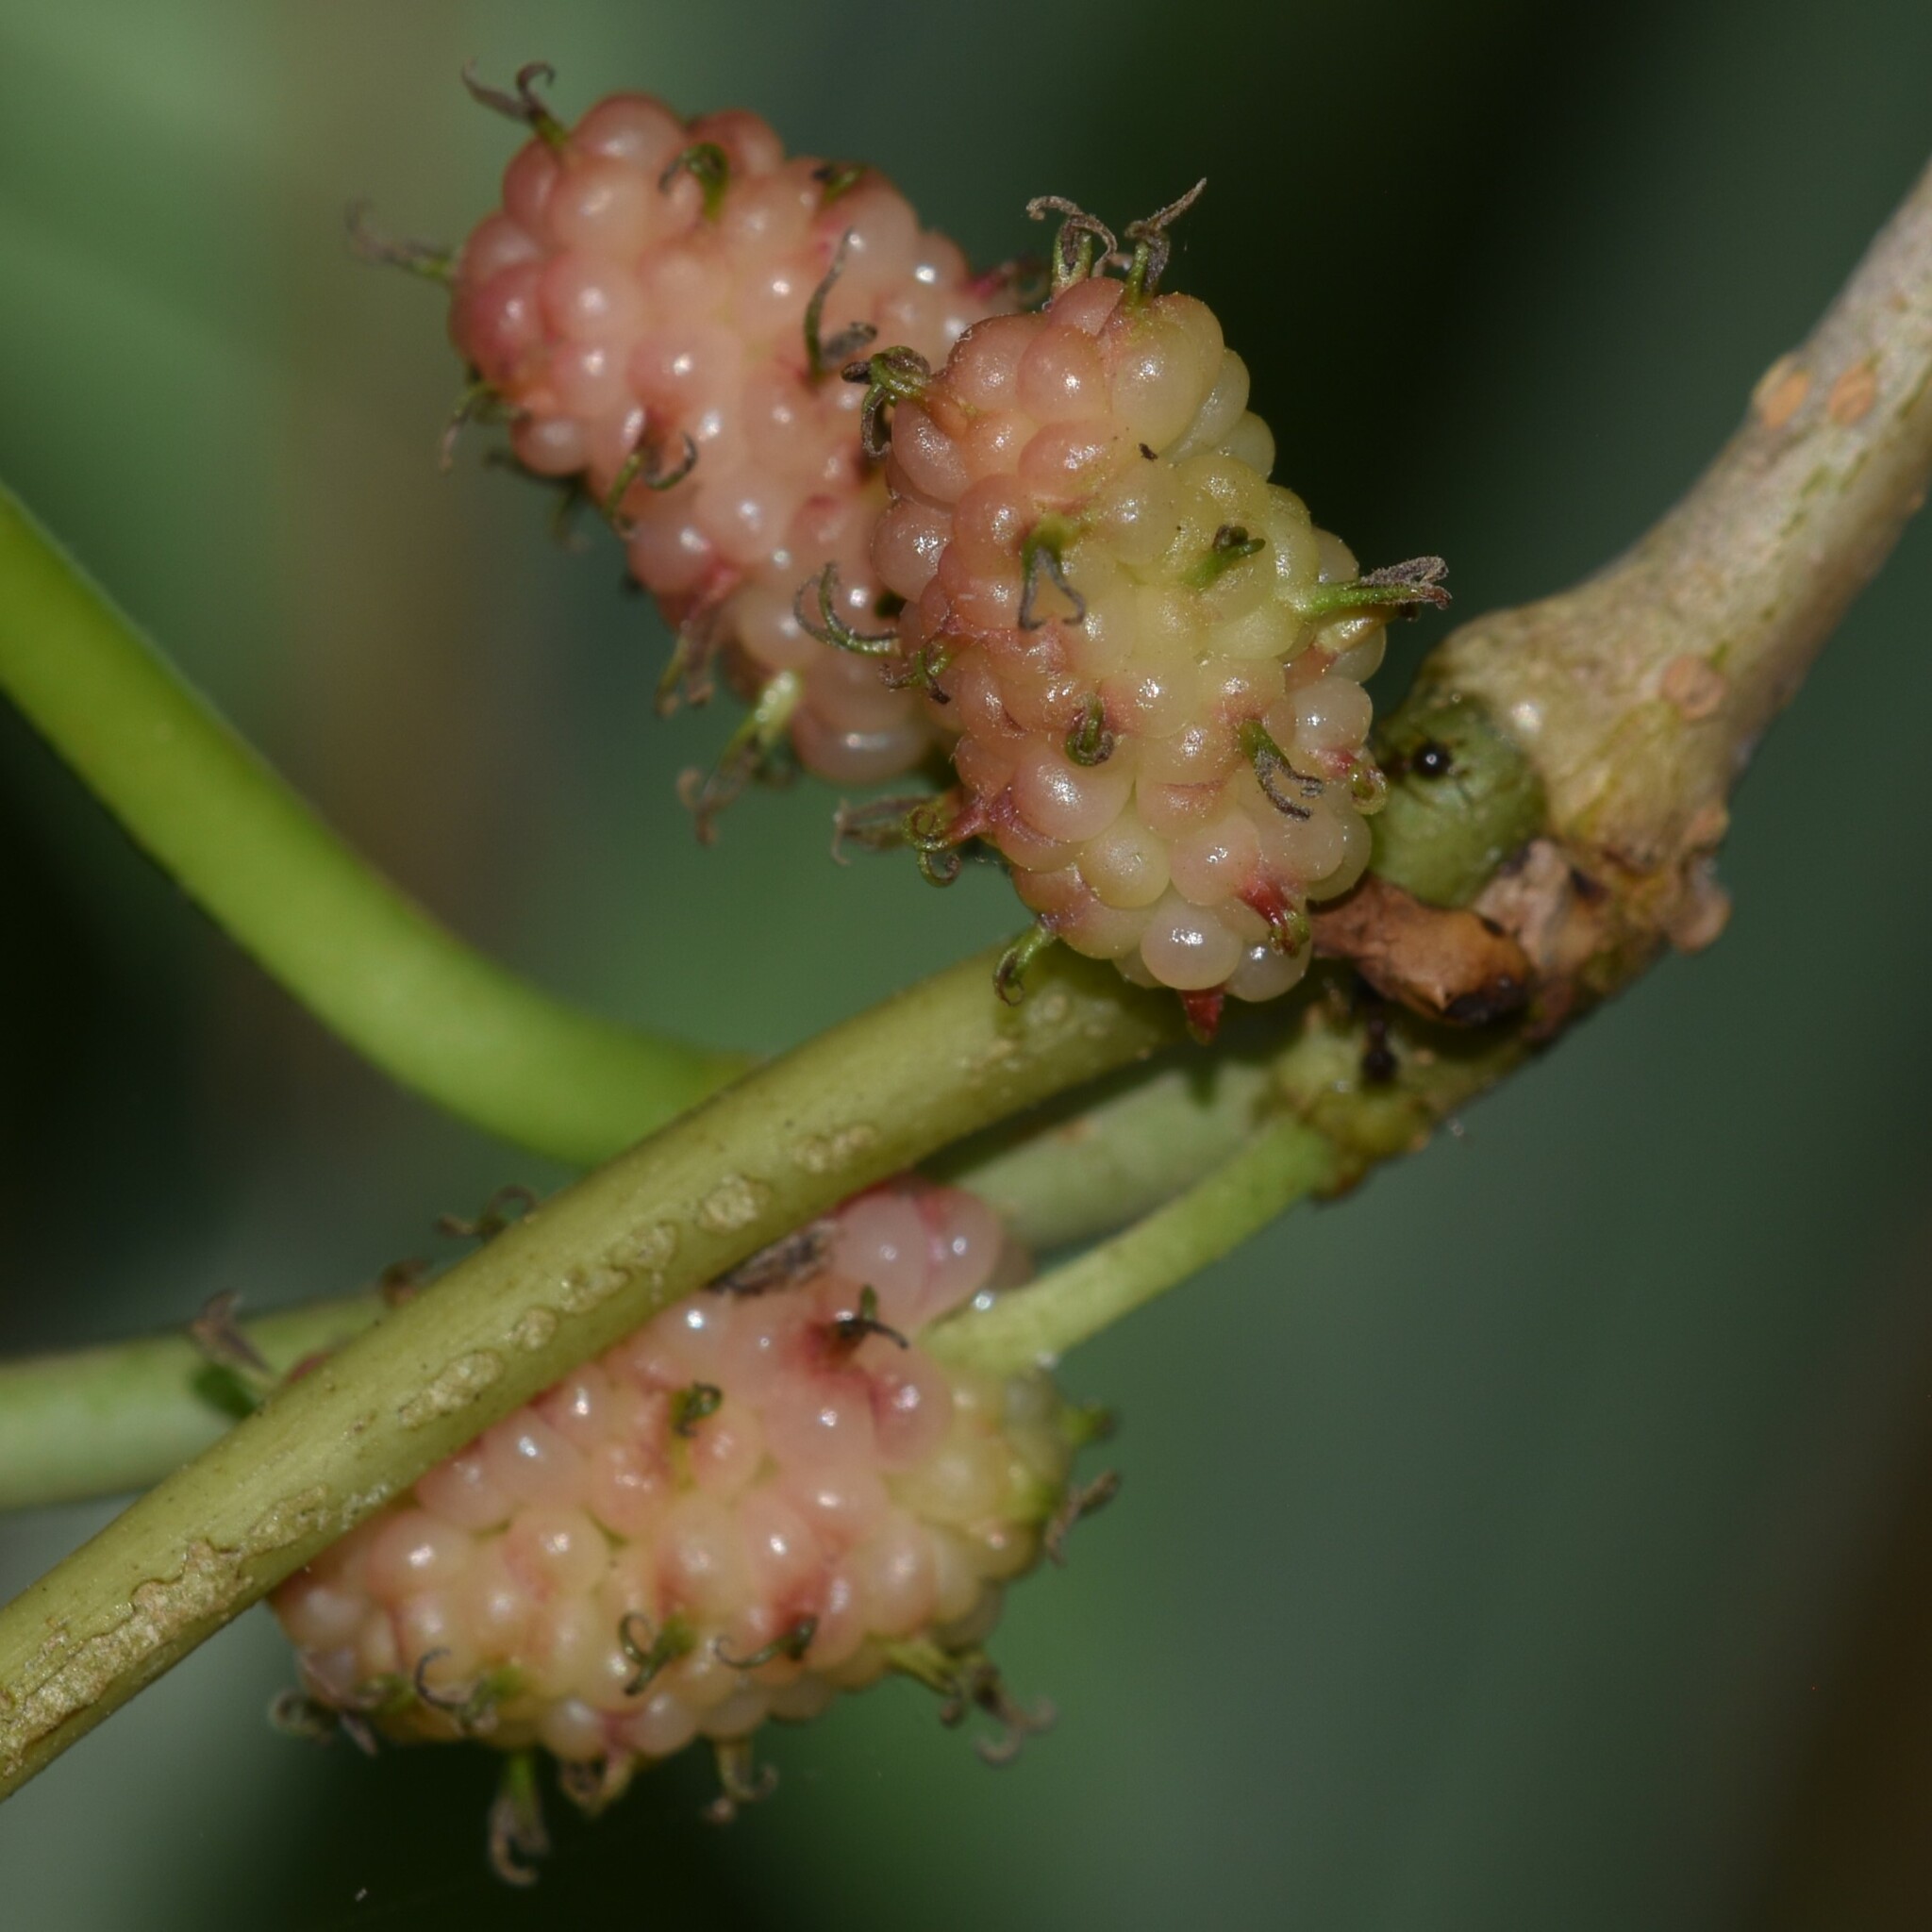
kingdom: Plantae
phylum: Tracheophyta
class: Magnoliopsida
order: Rosales
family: Moraceae
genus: Morus
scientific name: Morus alba
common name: White mulberry
